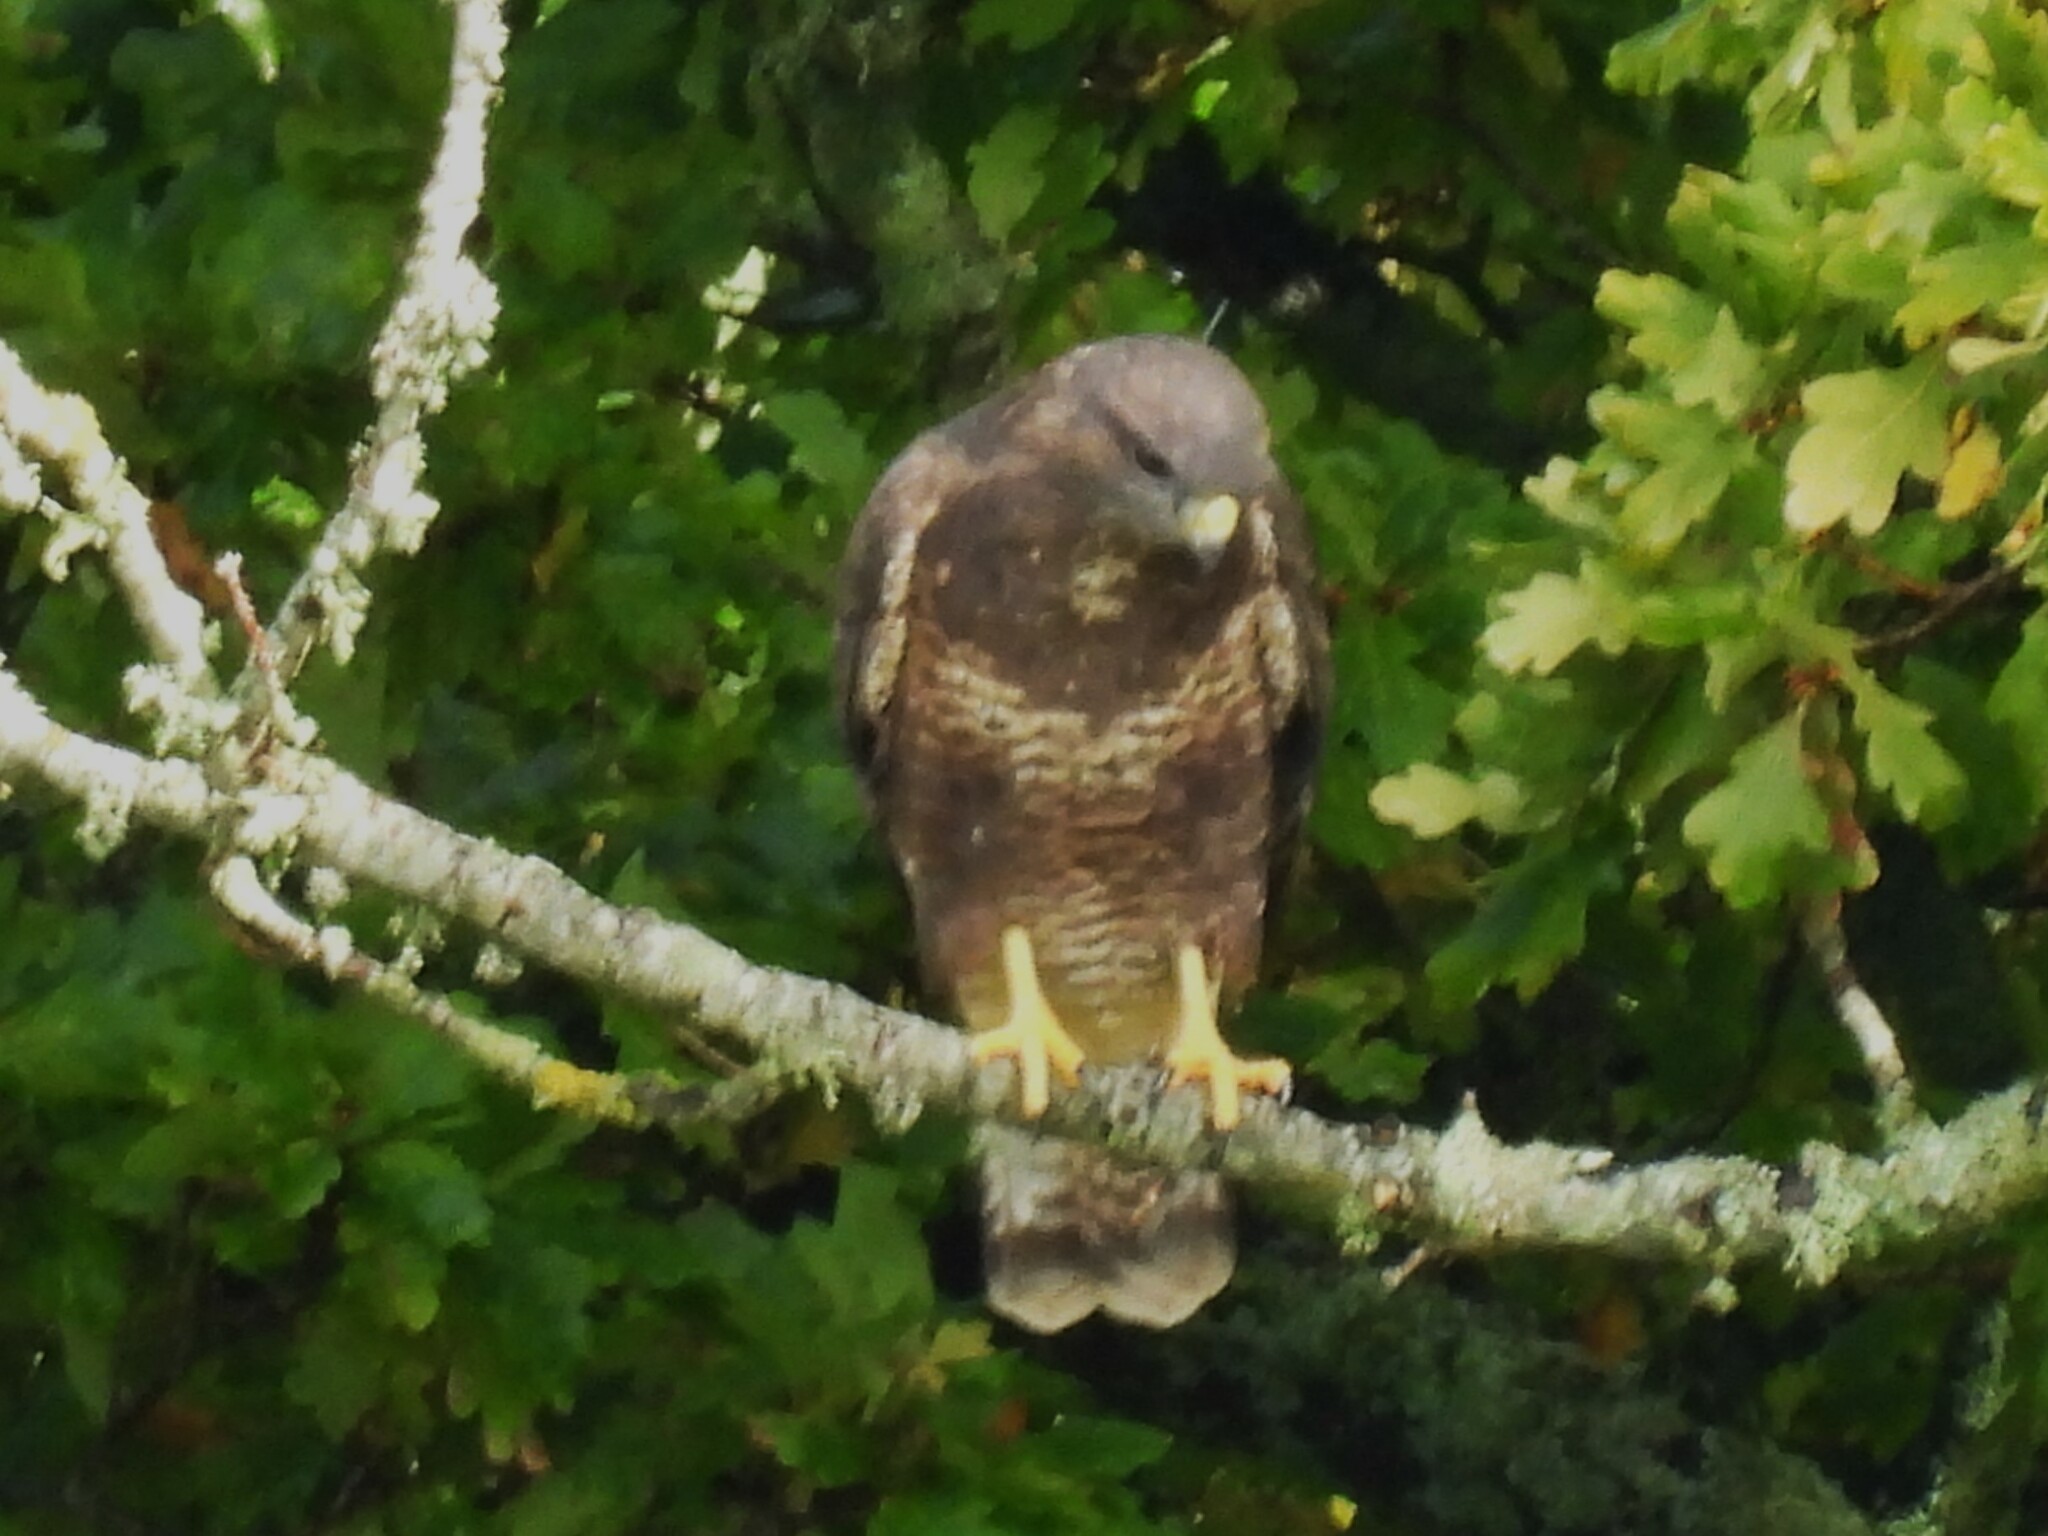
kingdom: Animalia
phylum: Chordata
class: Aves
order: Accipitriformes
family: Accipitridae
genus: Buteo
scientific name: Buteo buteo
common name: Common buzzard
